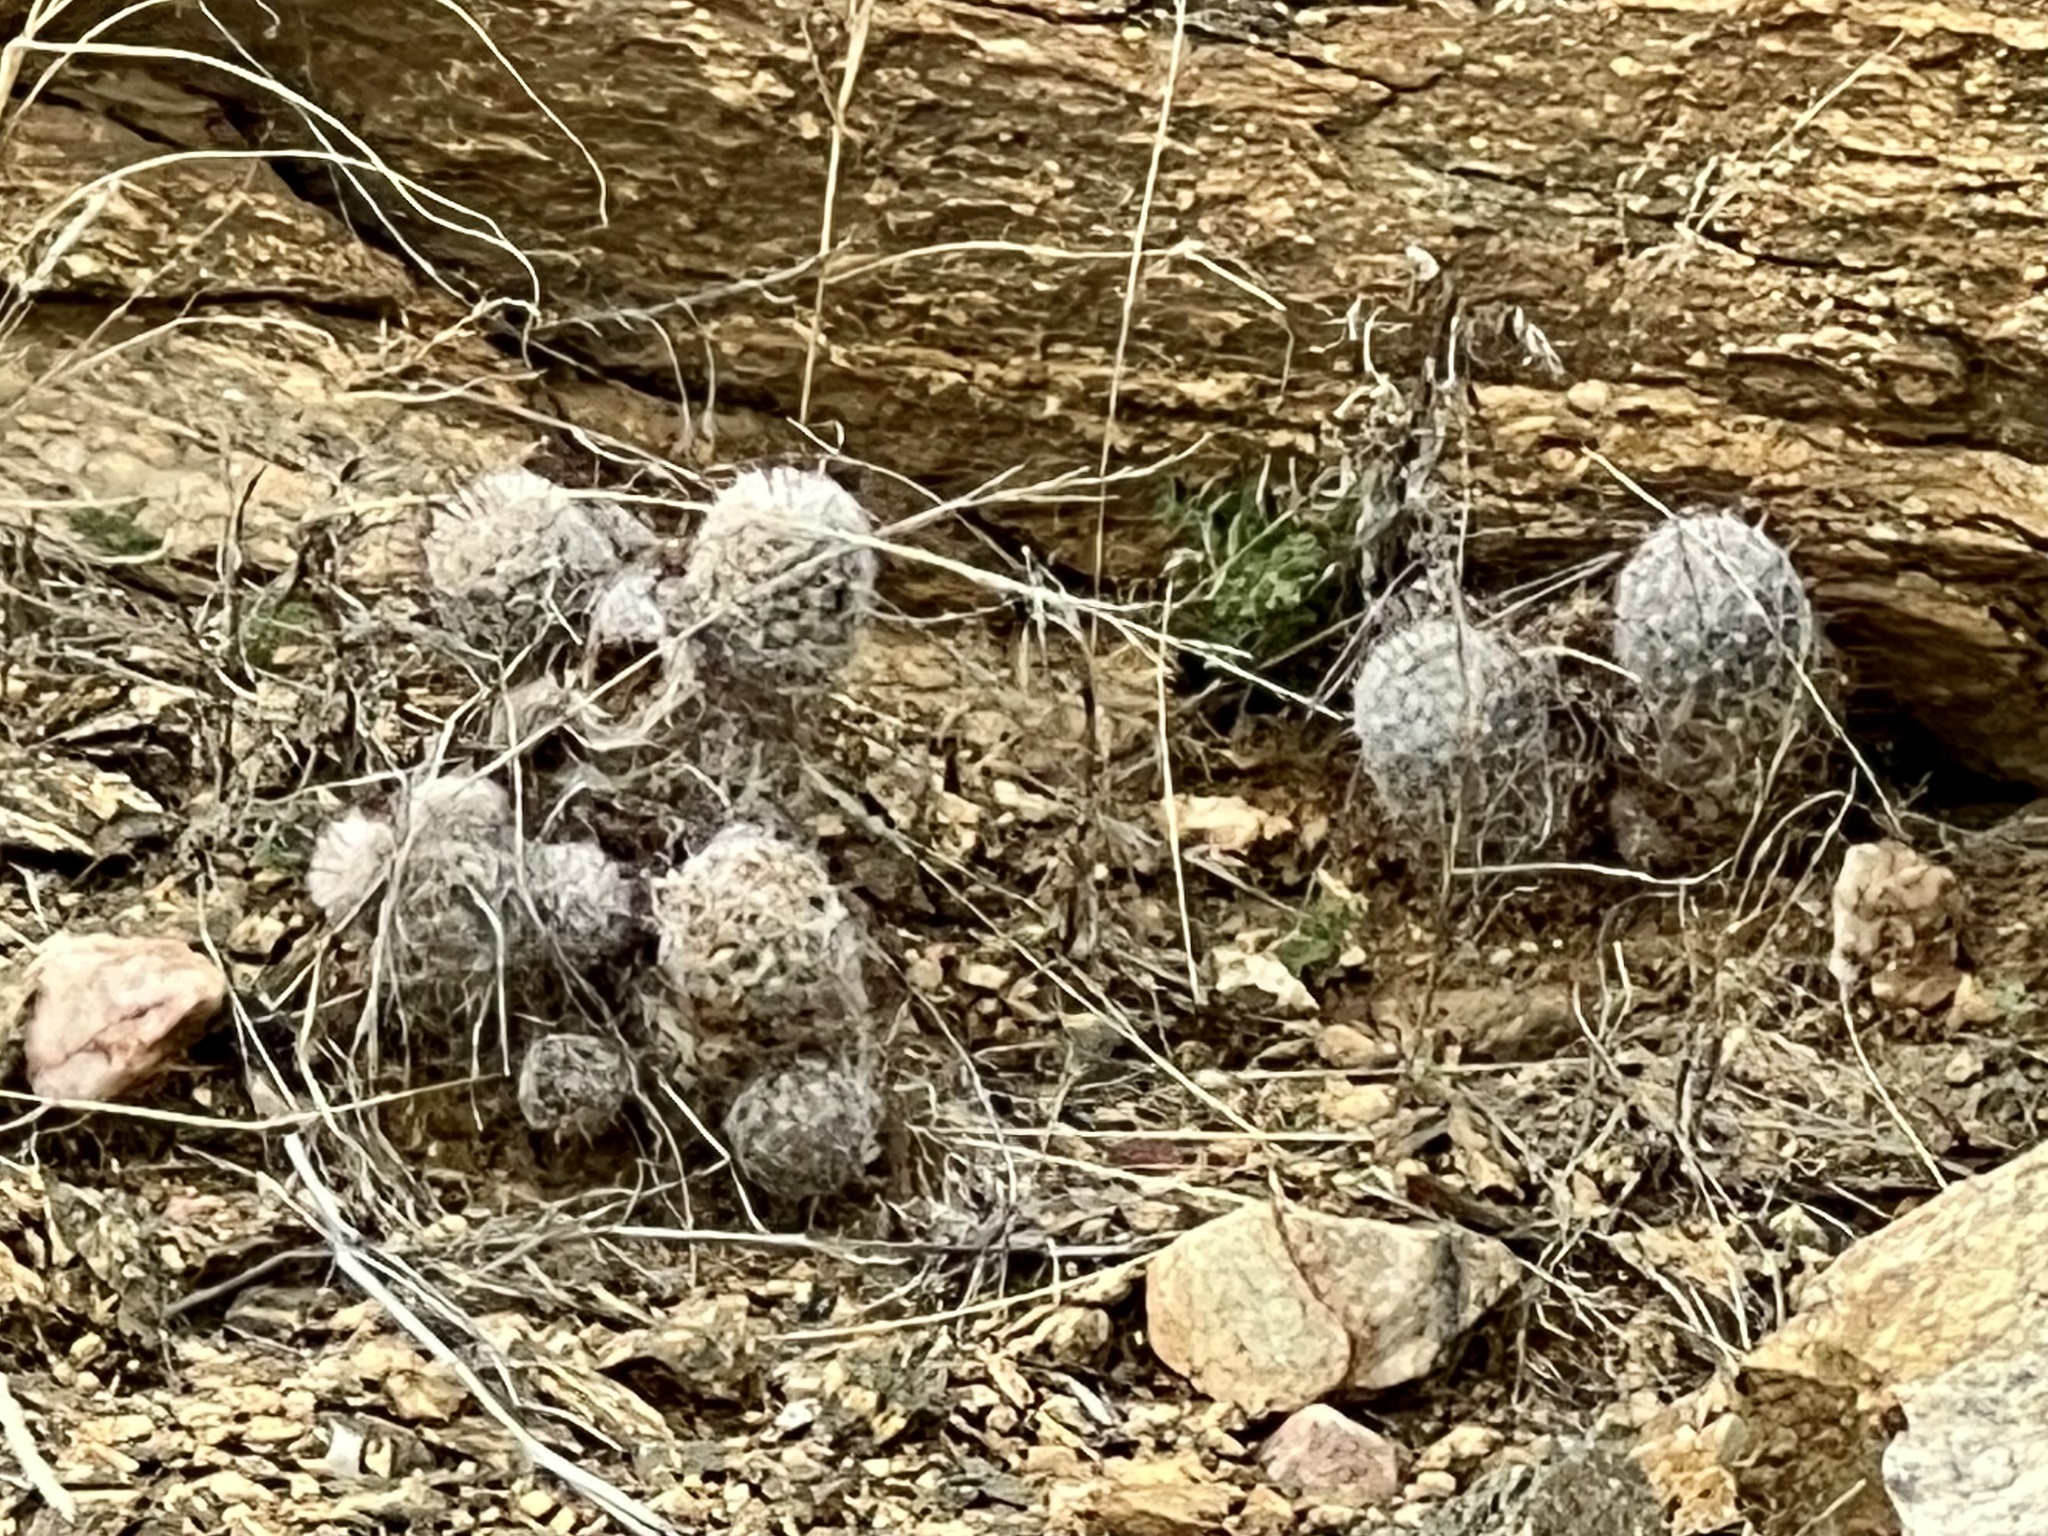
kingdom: Plantae
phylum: Tracheophyta
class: Magnoliopsida
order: Caryophyllales
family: Cactaceae
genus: Cochemiea
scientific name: Cochemiea grahamii
